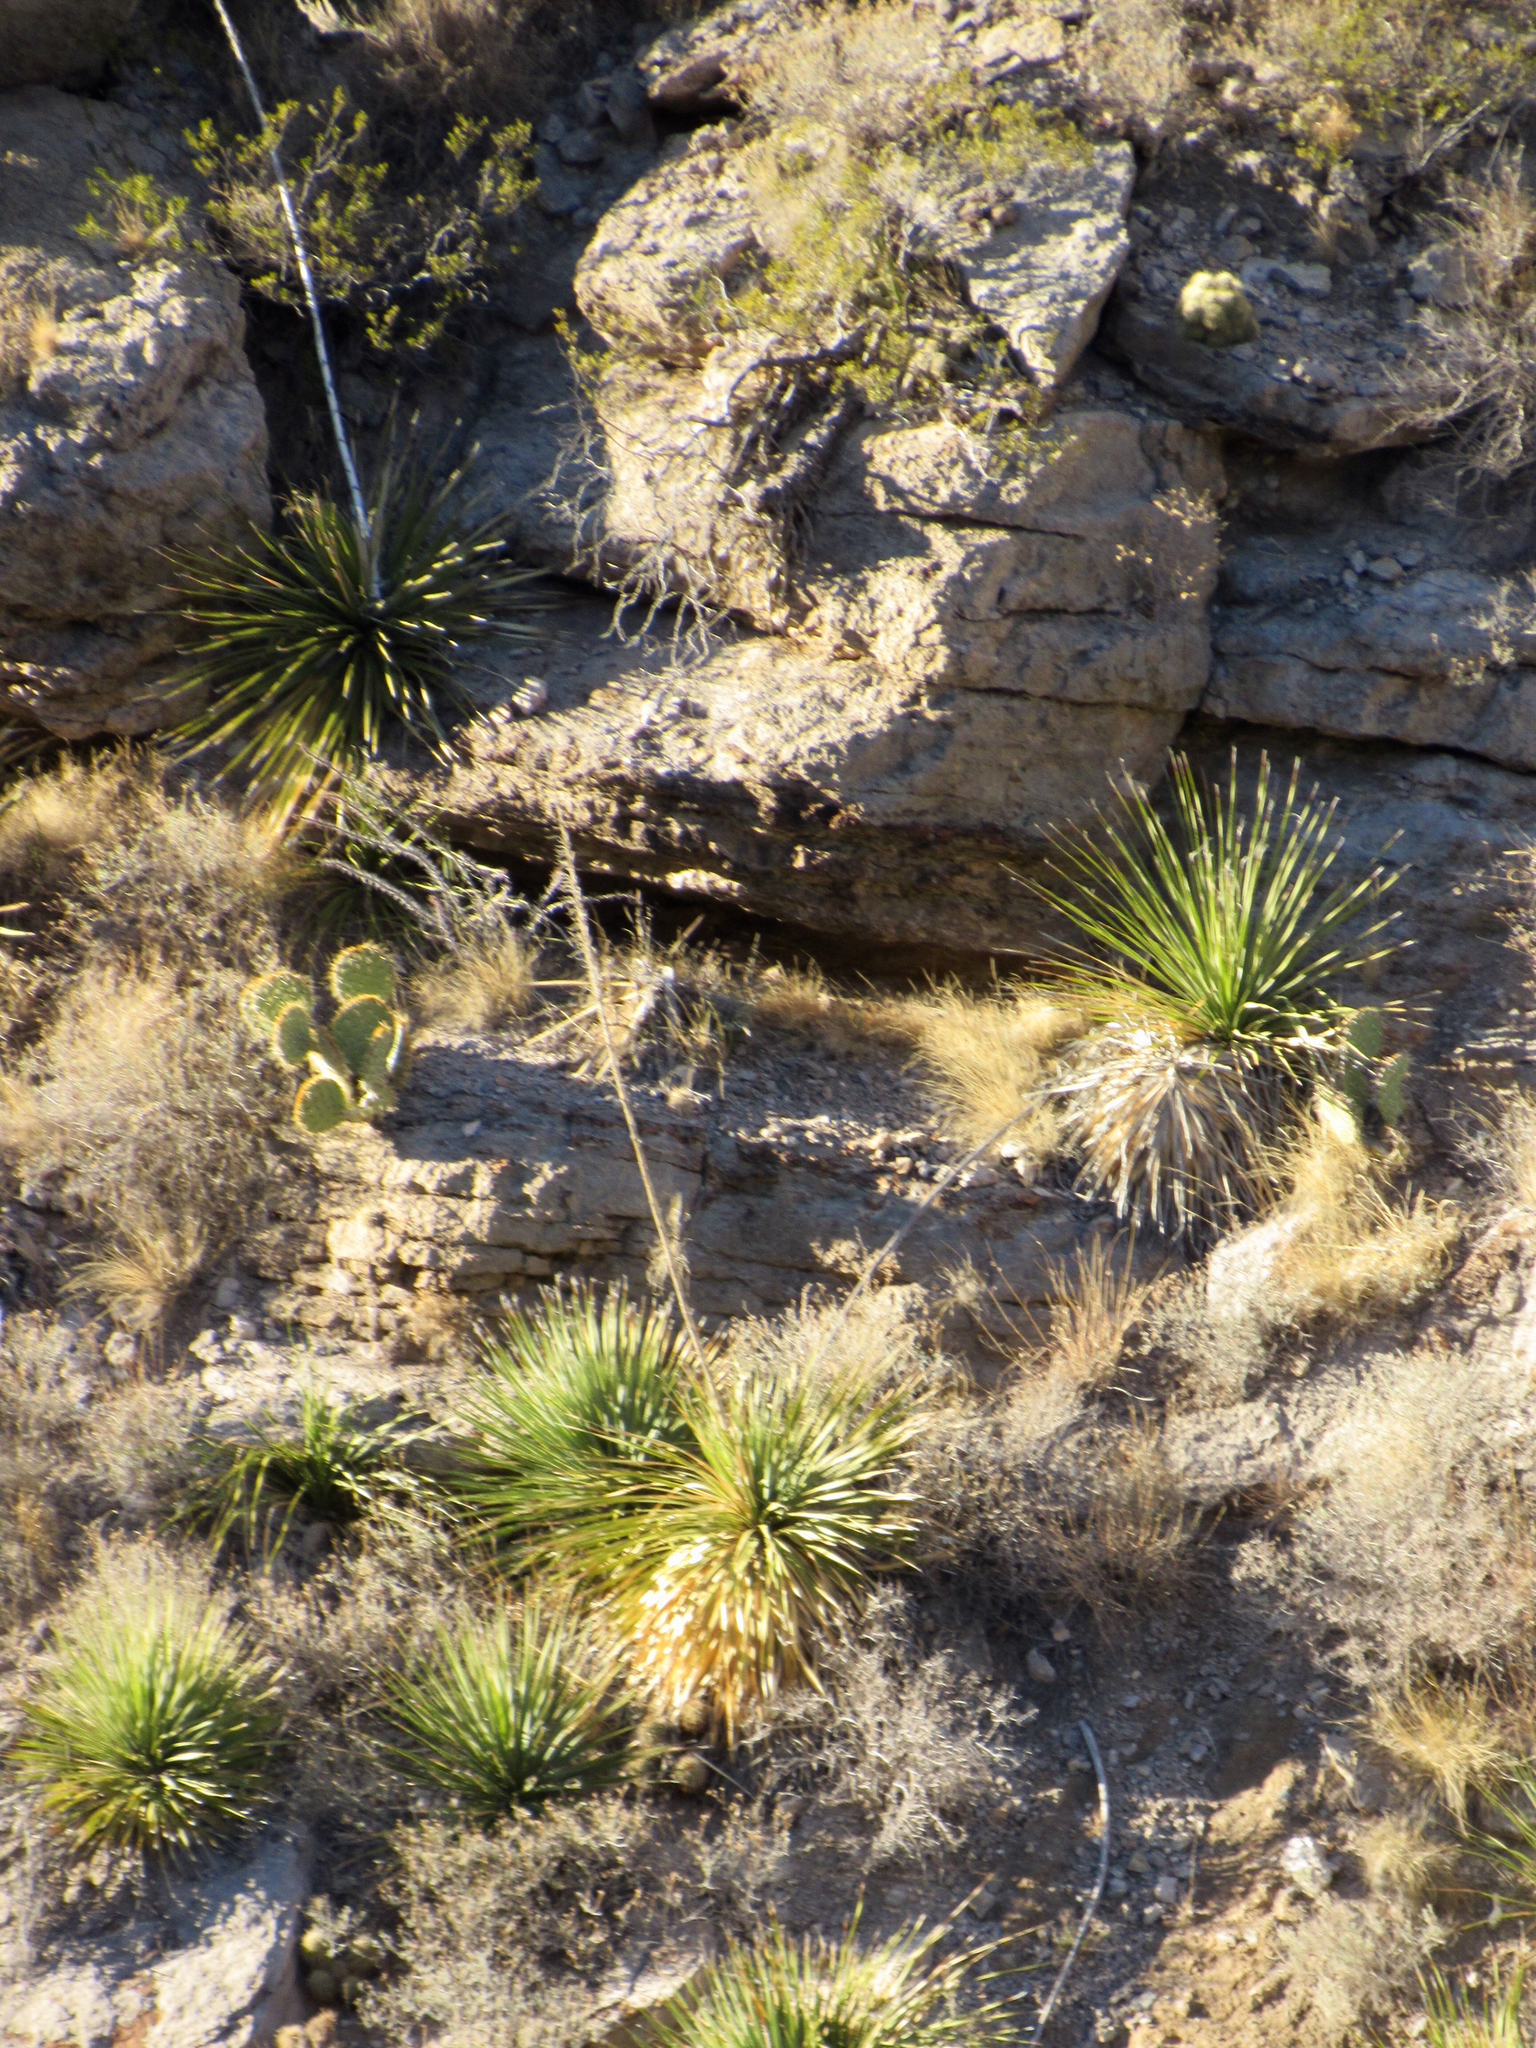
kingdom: Plantae
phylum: Tracheophyta
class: Liliopsida
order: Asparagales
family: Asparagaceae
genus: Dasylirion
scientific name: Dasylirion wheeleri
